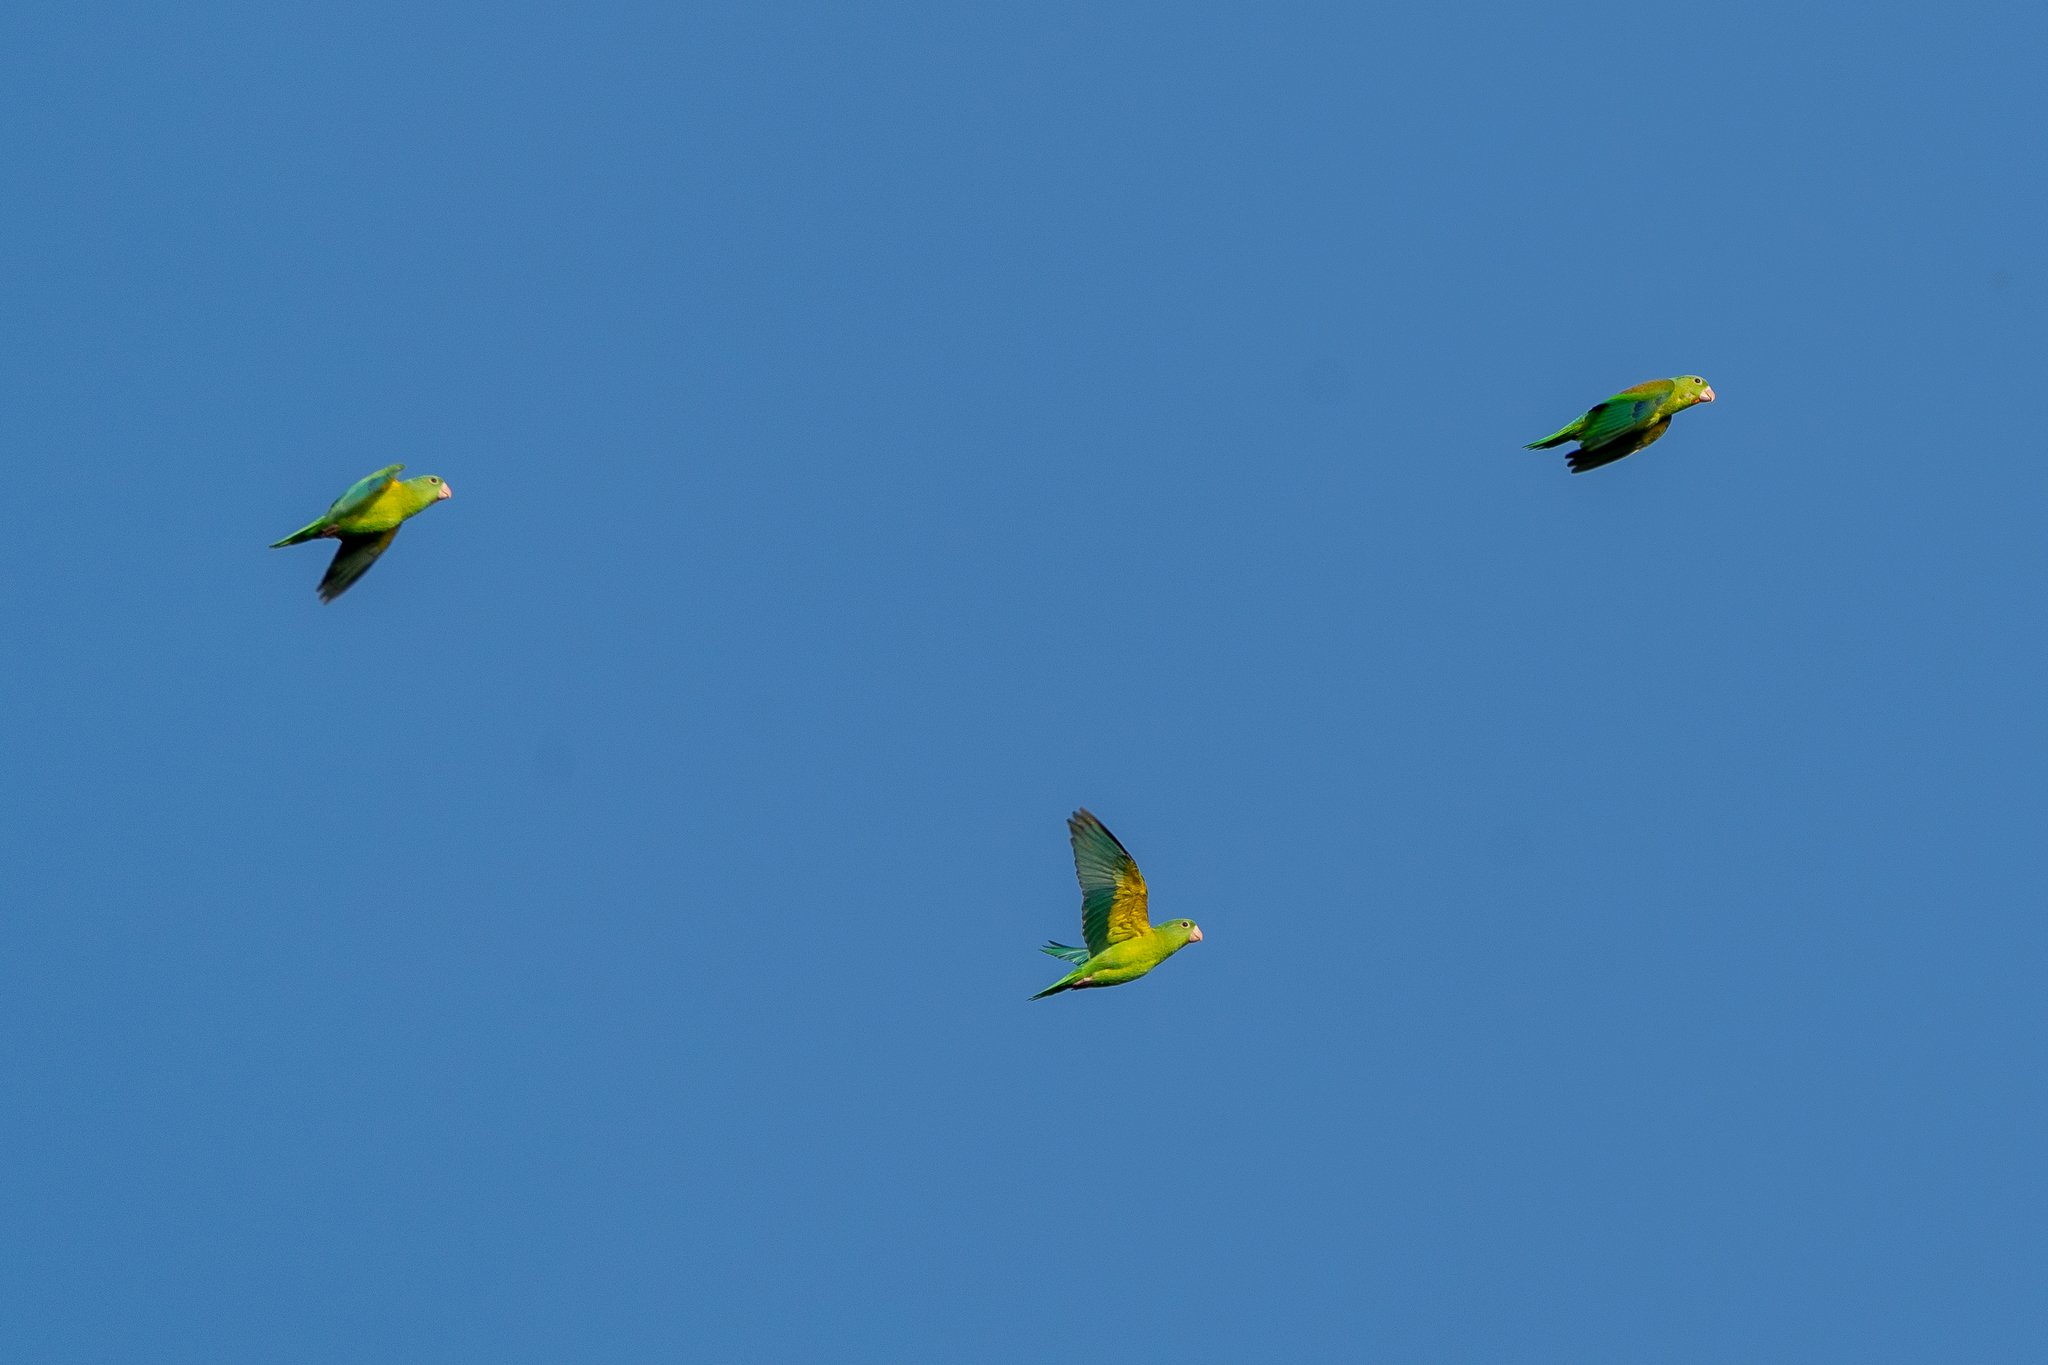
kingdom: Animalia
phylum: Chordata
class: Aves
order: Psittaciformes
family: Psittacidae
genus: Brotogeris
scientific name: Brotogeris jugularis
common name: Orange-chinned parakeet
